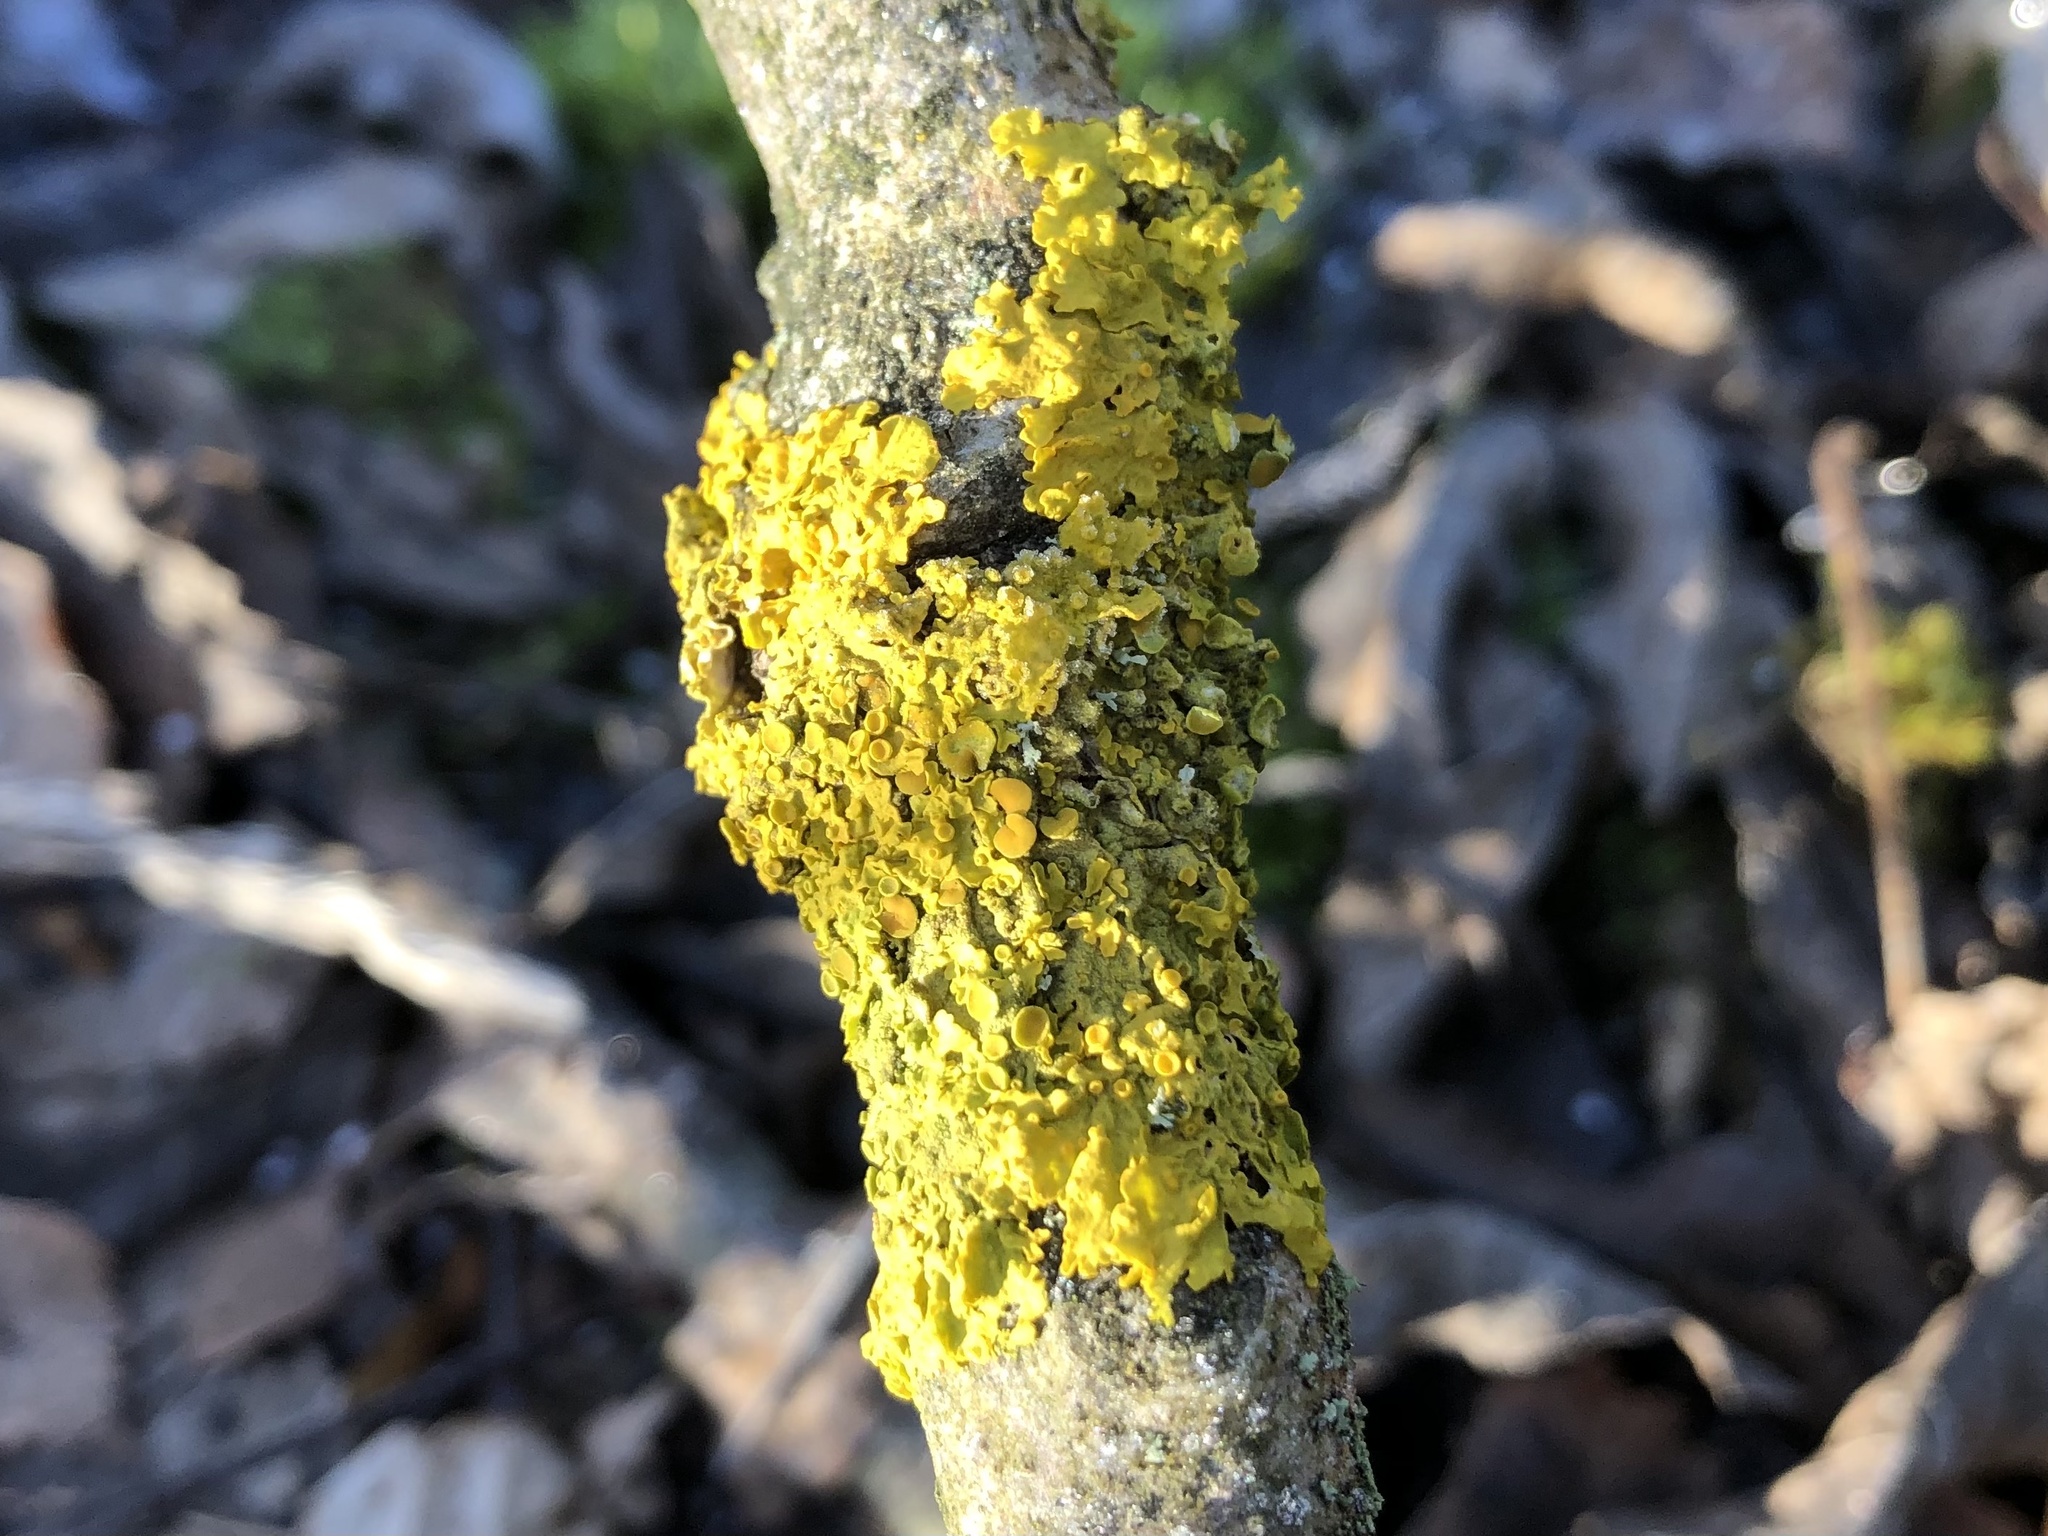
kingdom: Fungi
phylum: Ascomycota
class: Lecanoromycetes
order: Teloschistales
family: Teloschistaceae
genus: Xanthoria
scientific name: Xanthoria parietina
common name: Common orange lichen
